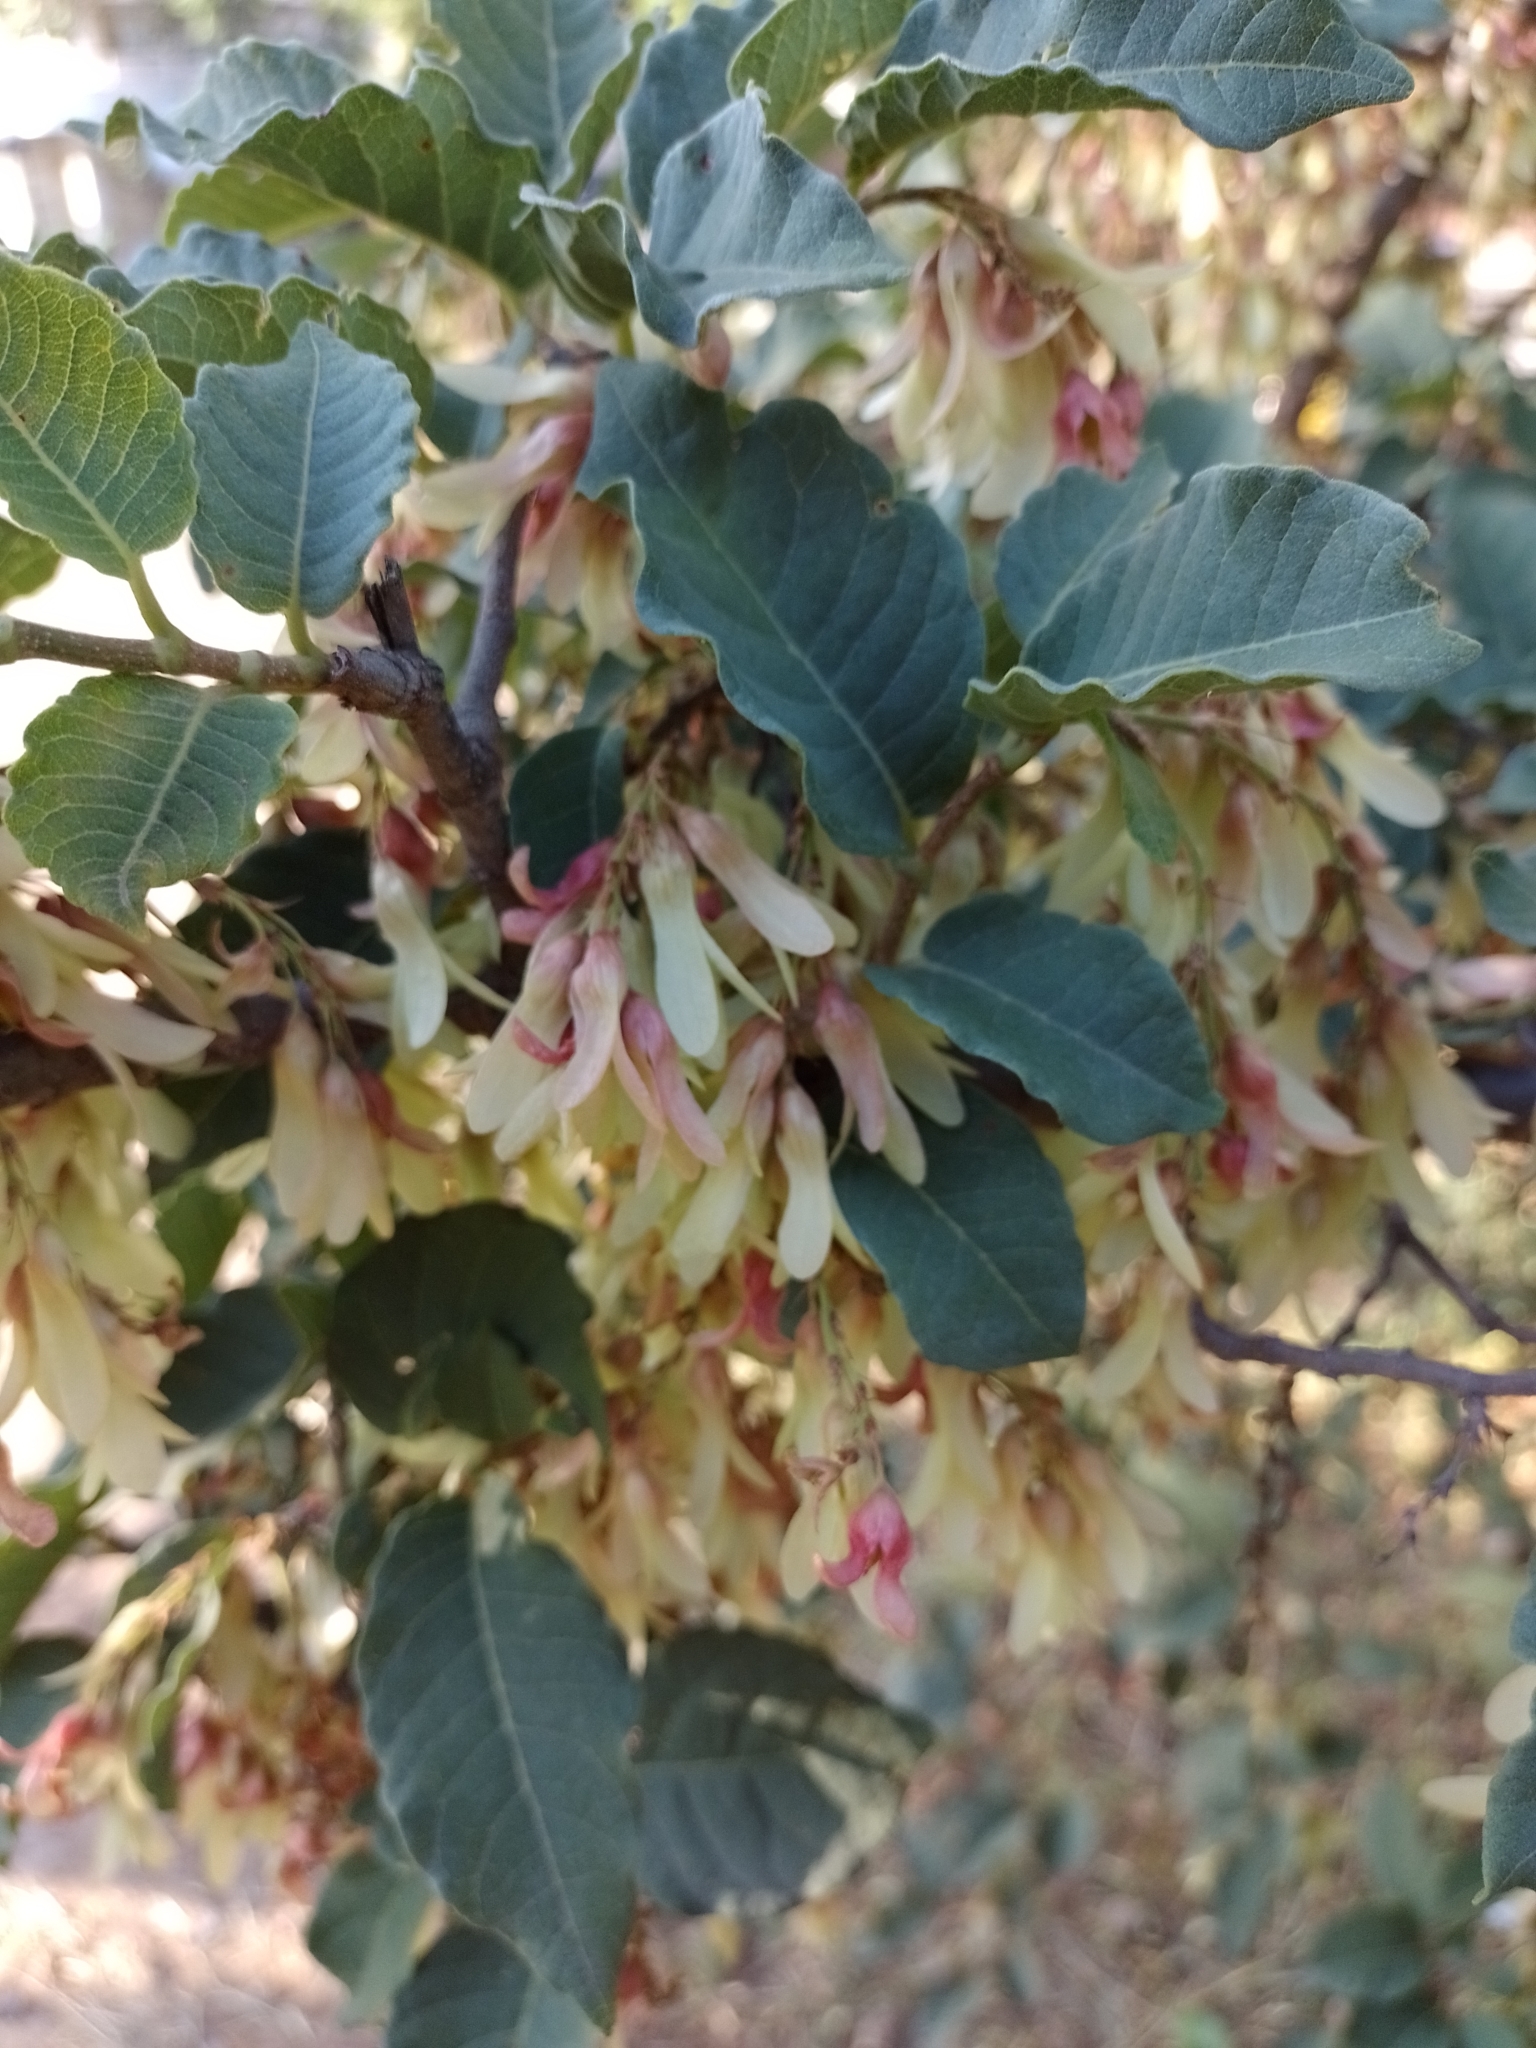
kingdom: Plantae
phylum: Tracheophyta
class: Magnoliopsida
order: Caryophyllales
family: Polygonaceae
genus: Ruprechtia
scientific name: Ruprechtia apetala
